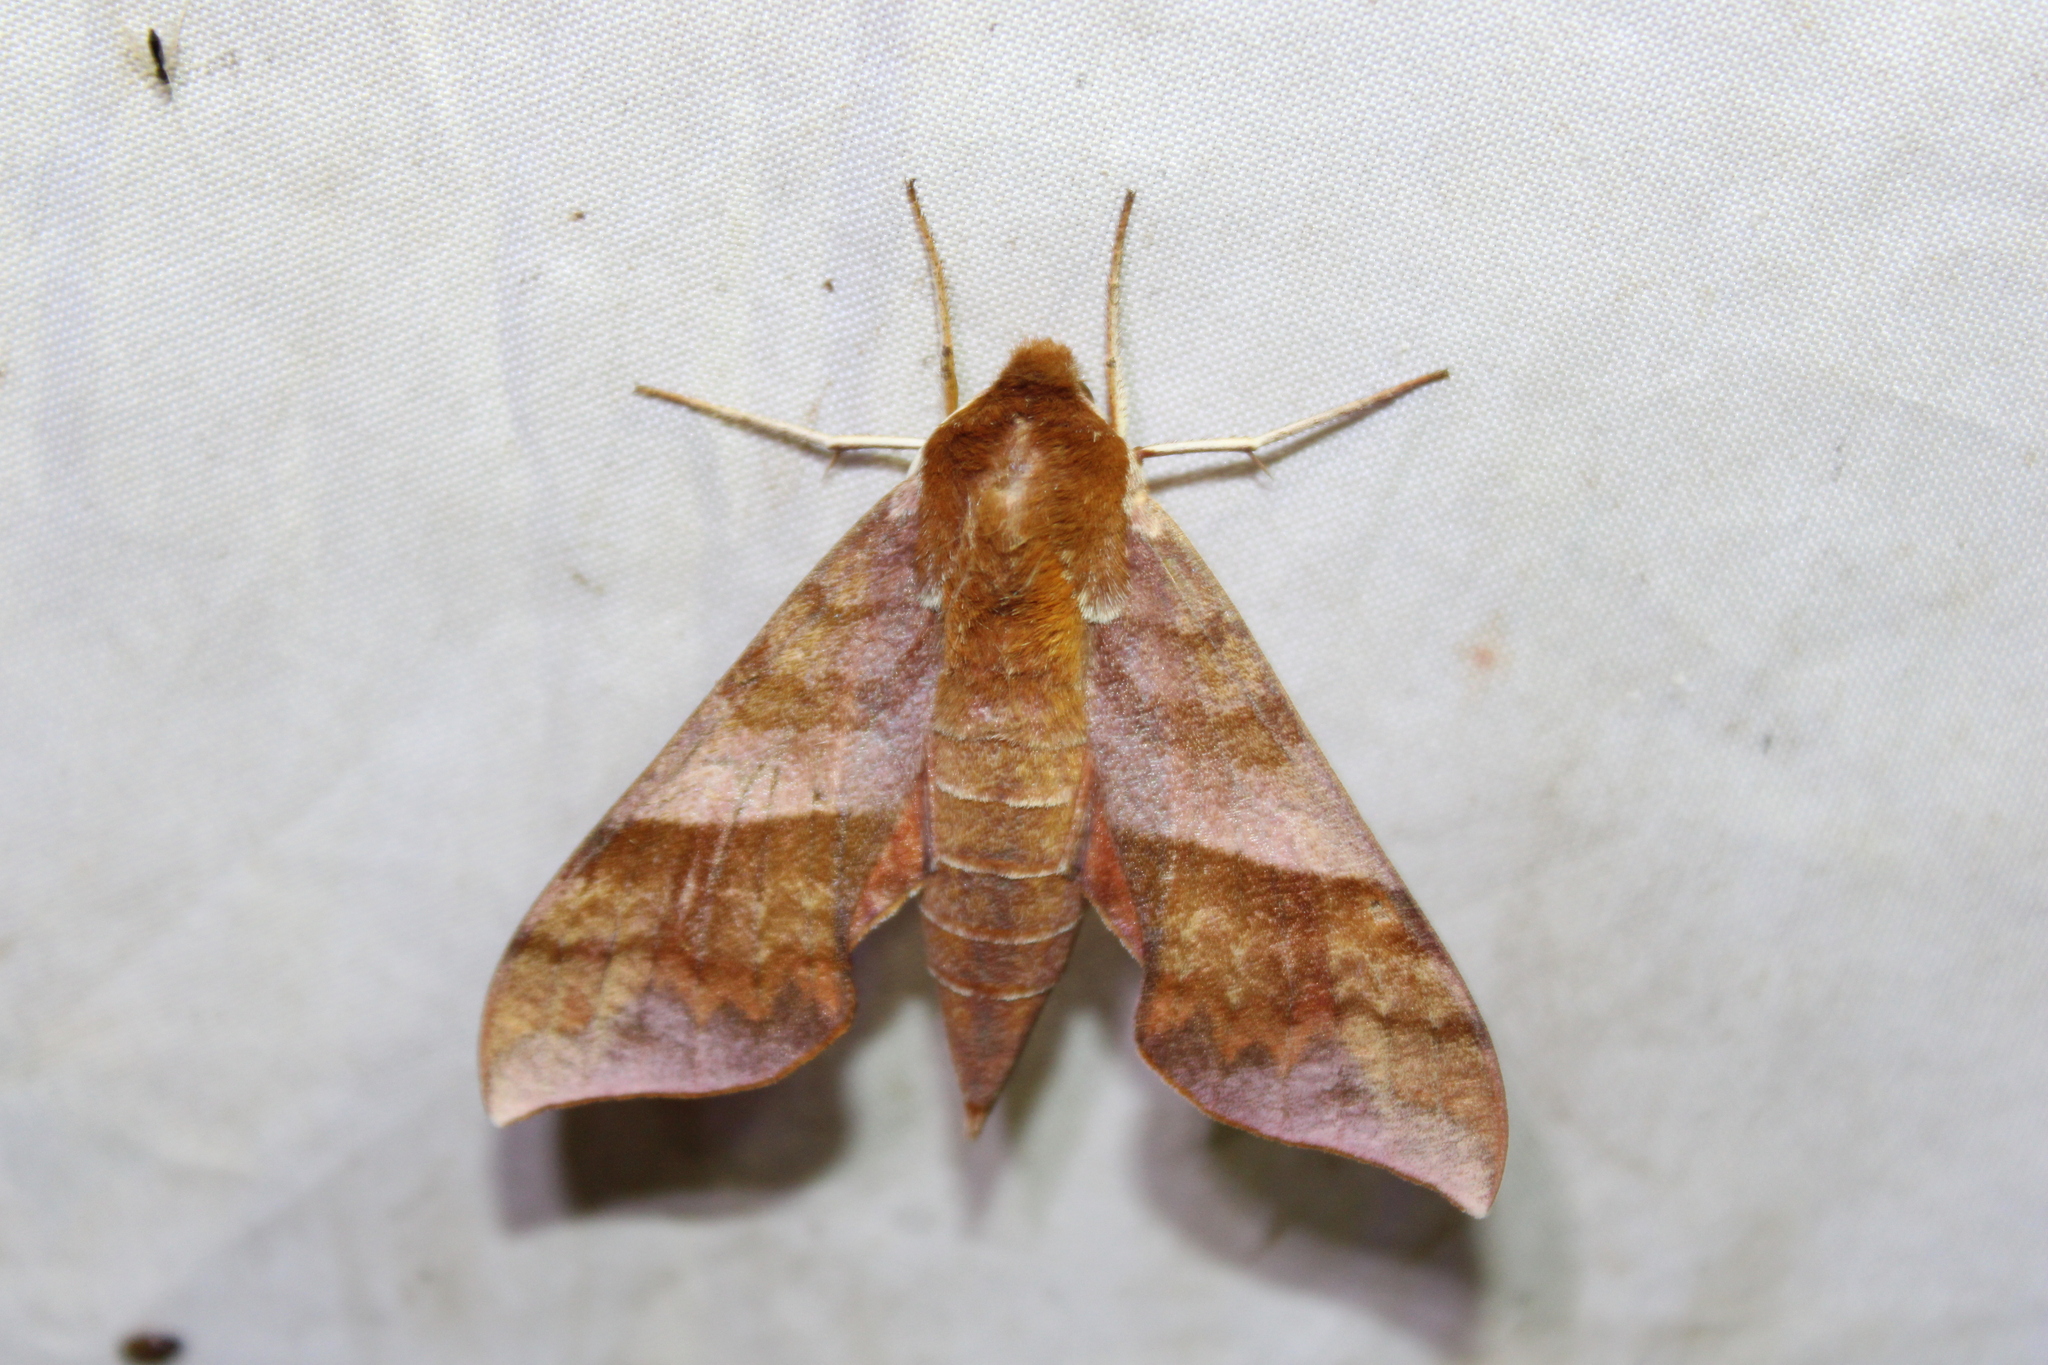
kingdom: Animalia
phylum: Arthropoda
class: Insecta
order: Lepidoptera
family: Sphingidae
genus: Darapsa
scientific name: Darapsa choerilus
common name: Azalea sphinx
